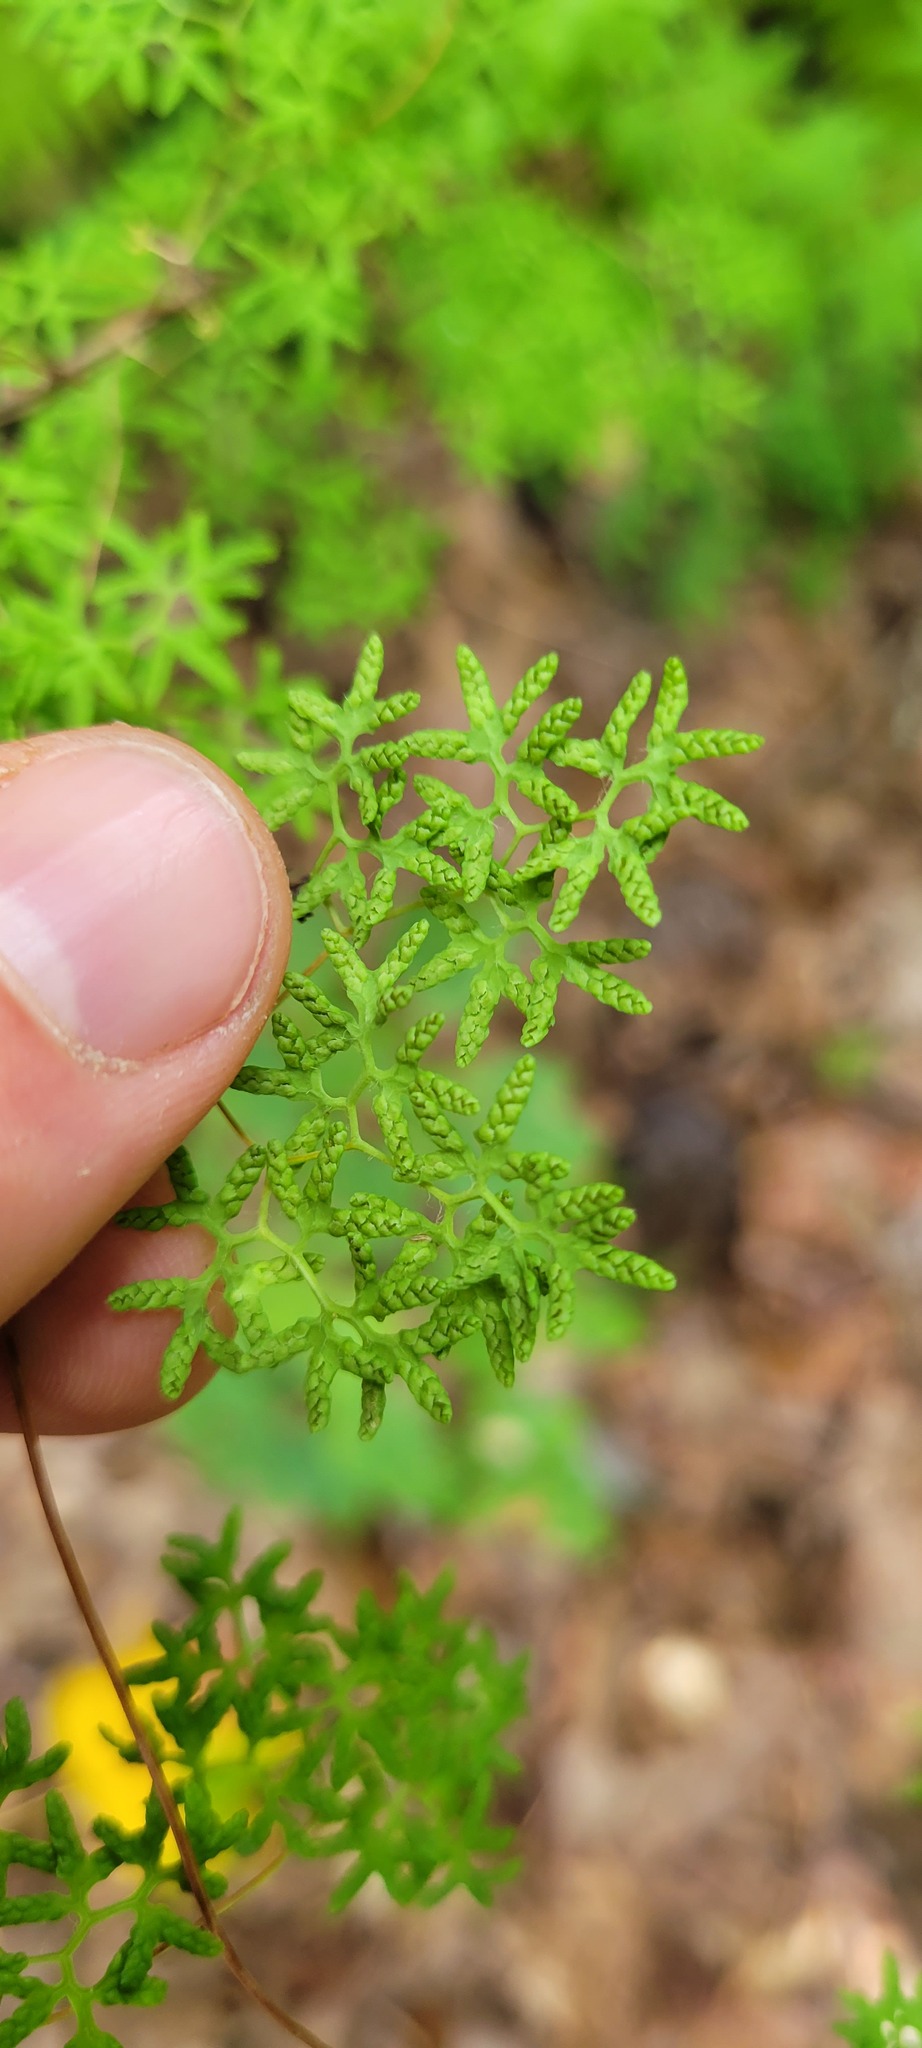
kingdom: Plantae
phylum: Tracheophyta
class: Polypodiopsida
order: Schizaeales
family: Lygodiaceae
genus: Lygodium
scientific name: Lygodium palmatum
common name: American climbing fern
